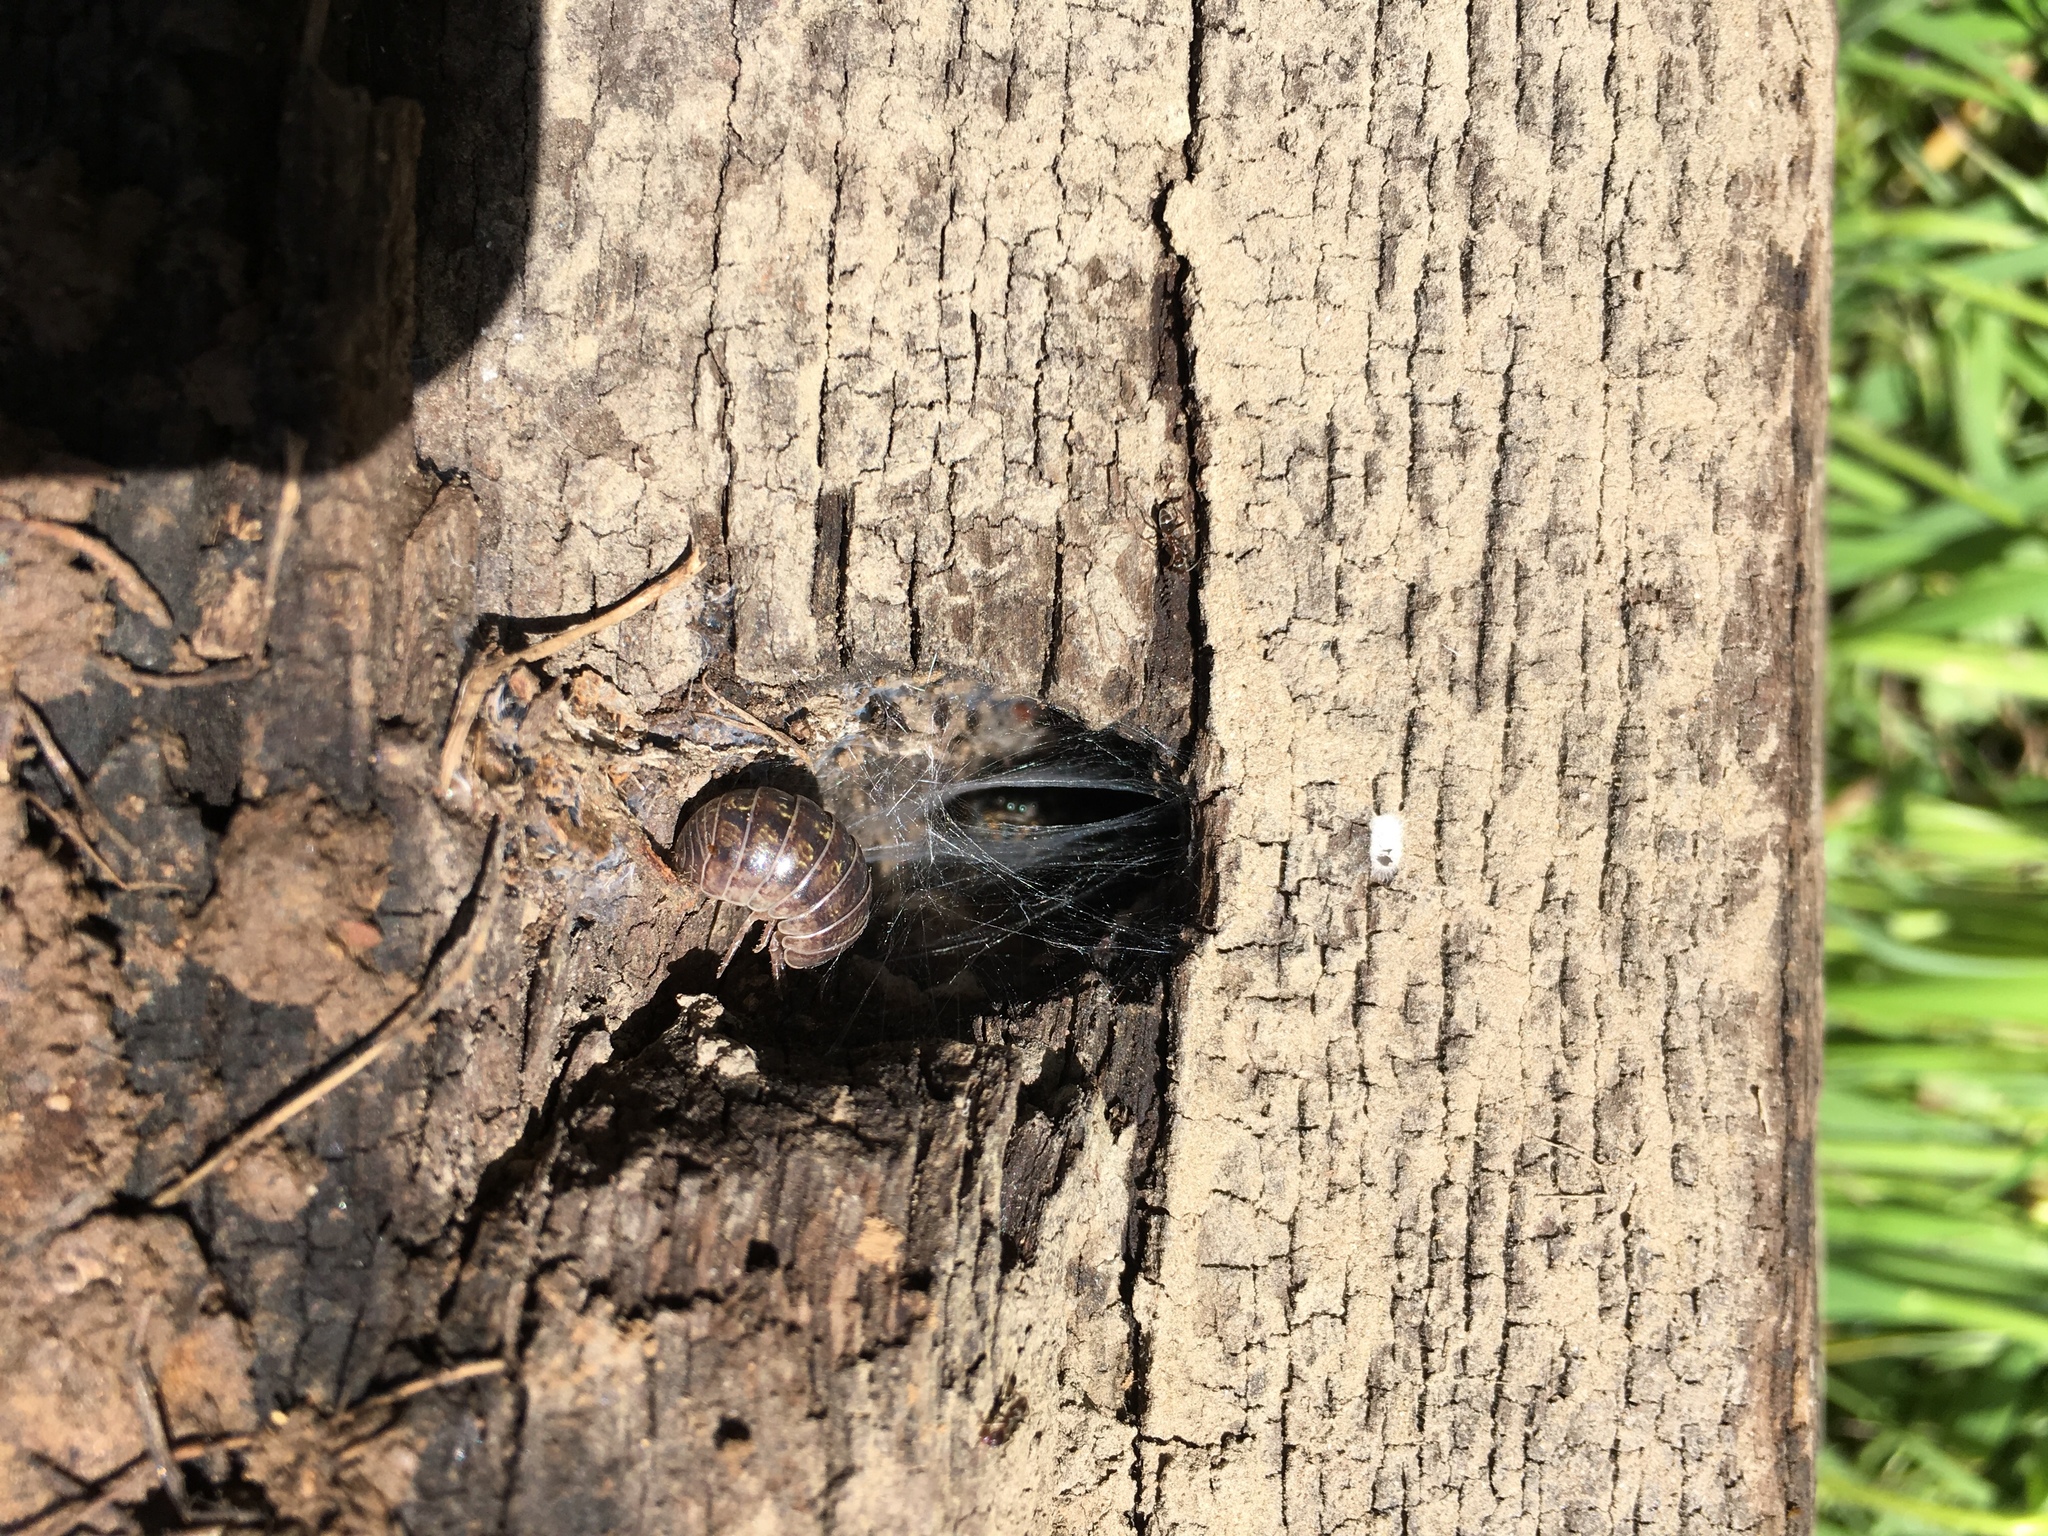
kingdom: Animalia
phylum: Arthropoda
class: Malacostraca
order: Isopoda
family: Armadillidiidae
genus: Armadillidium
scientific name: Armadillidium vulgare
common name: Common pill woodlouse
